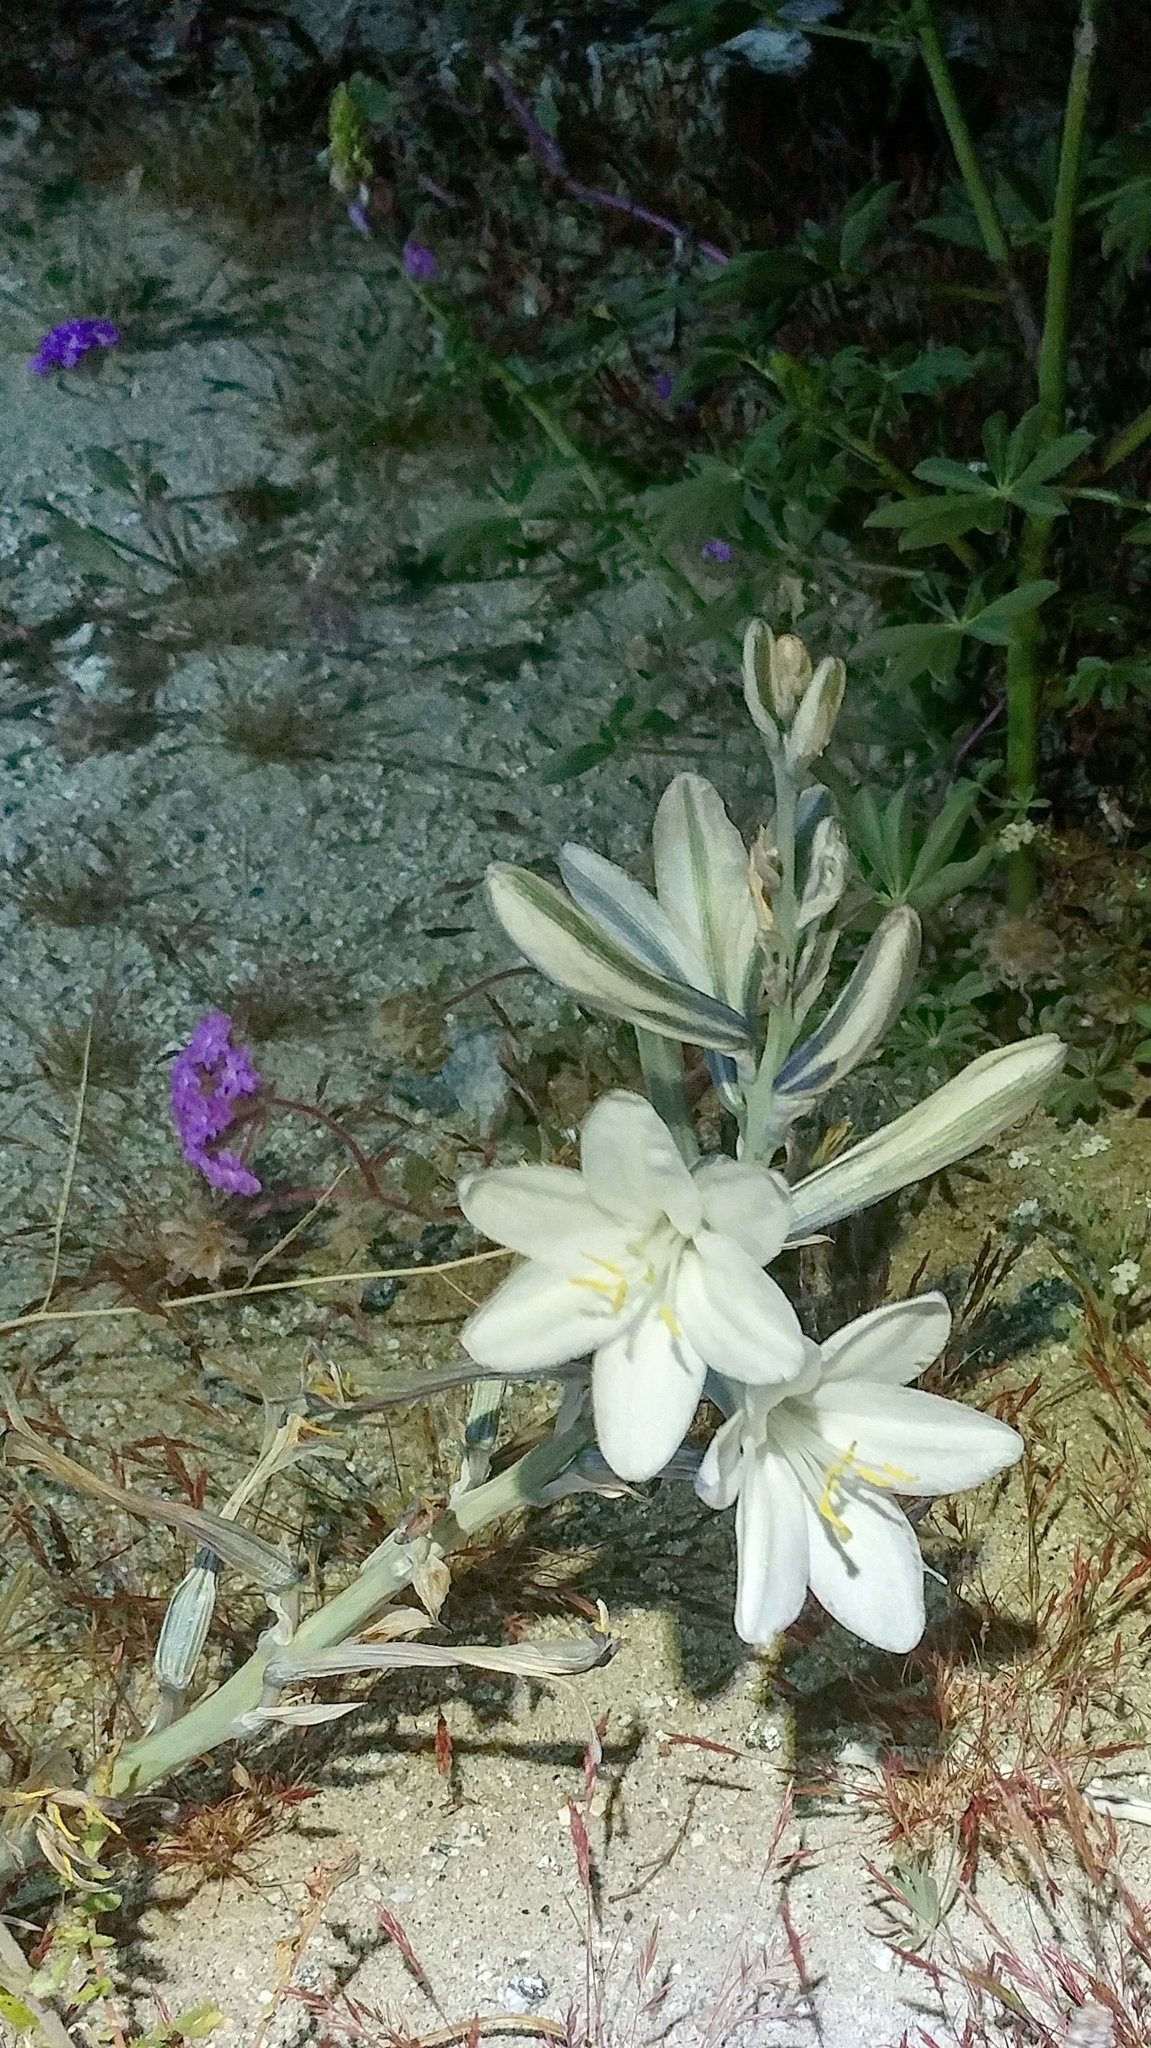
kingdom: Plantae
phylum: Tracheophyta
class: Liliopsida
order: Asparagales
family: Asparagaceae
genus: Hesperocallis
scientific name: Hesperocallis undulata
